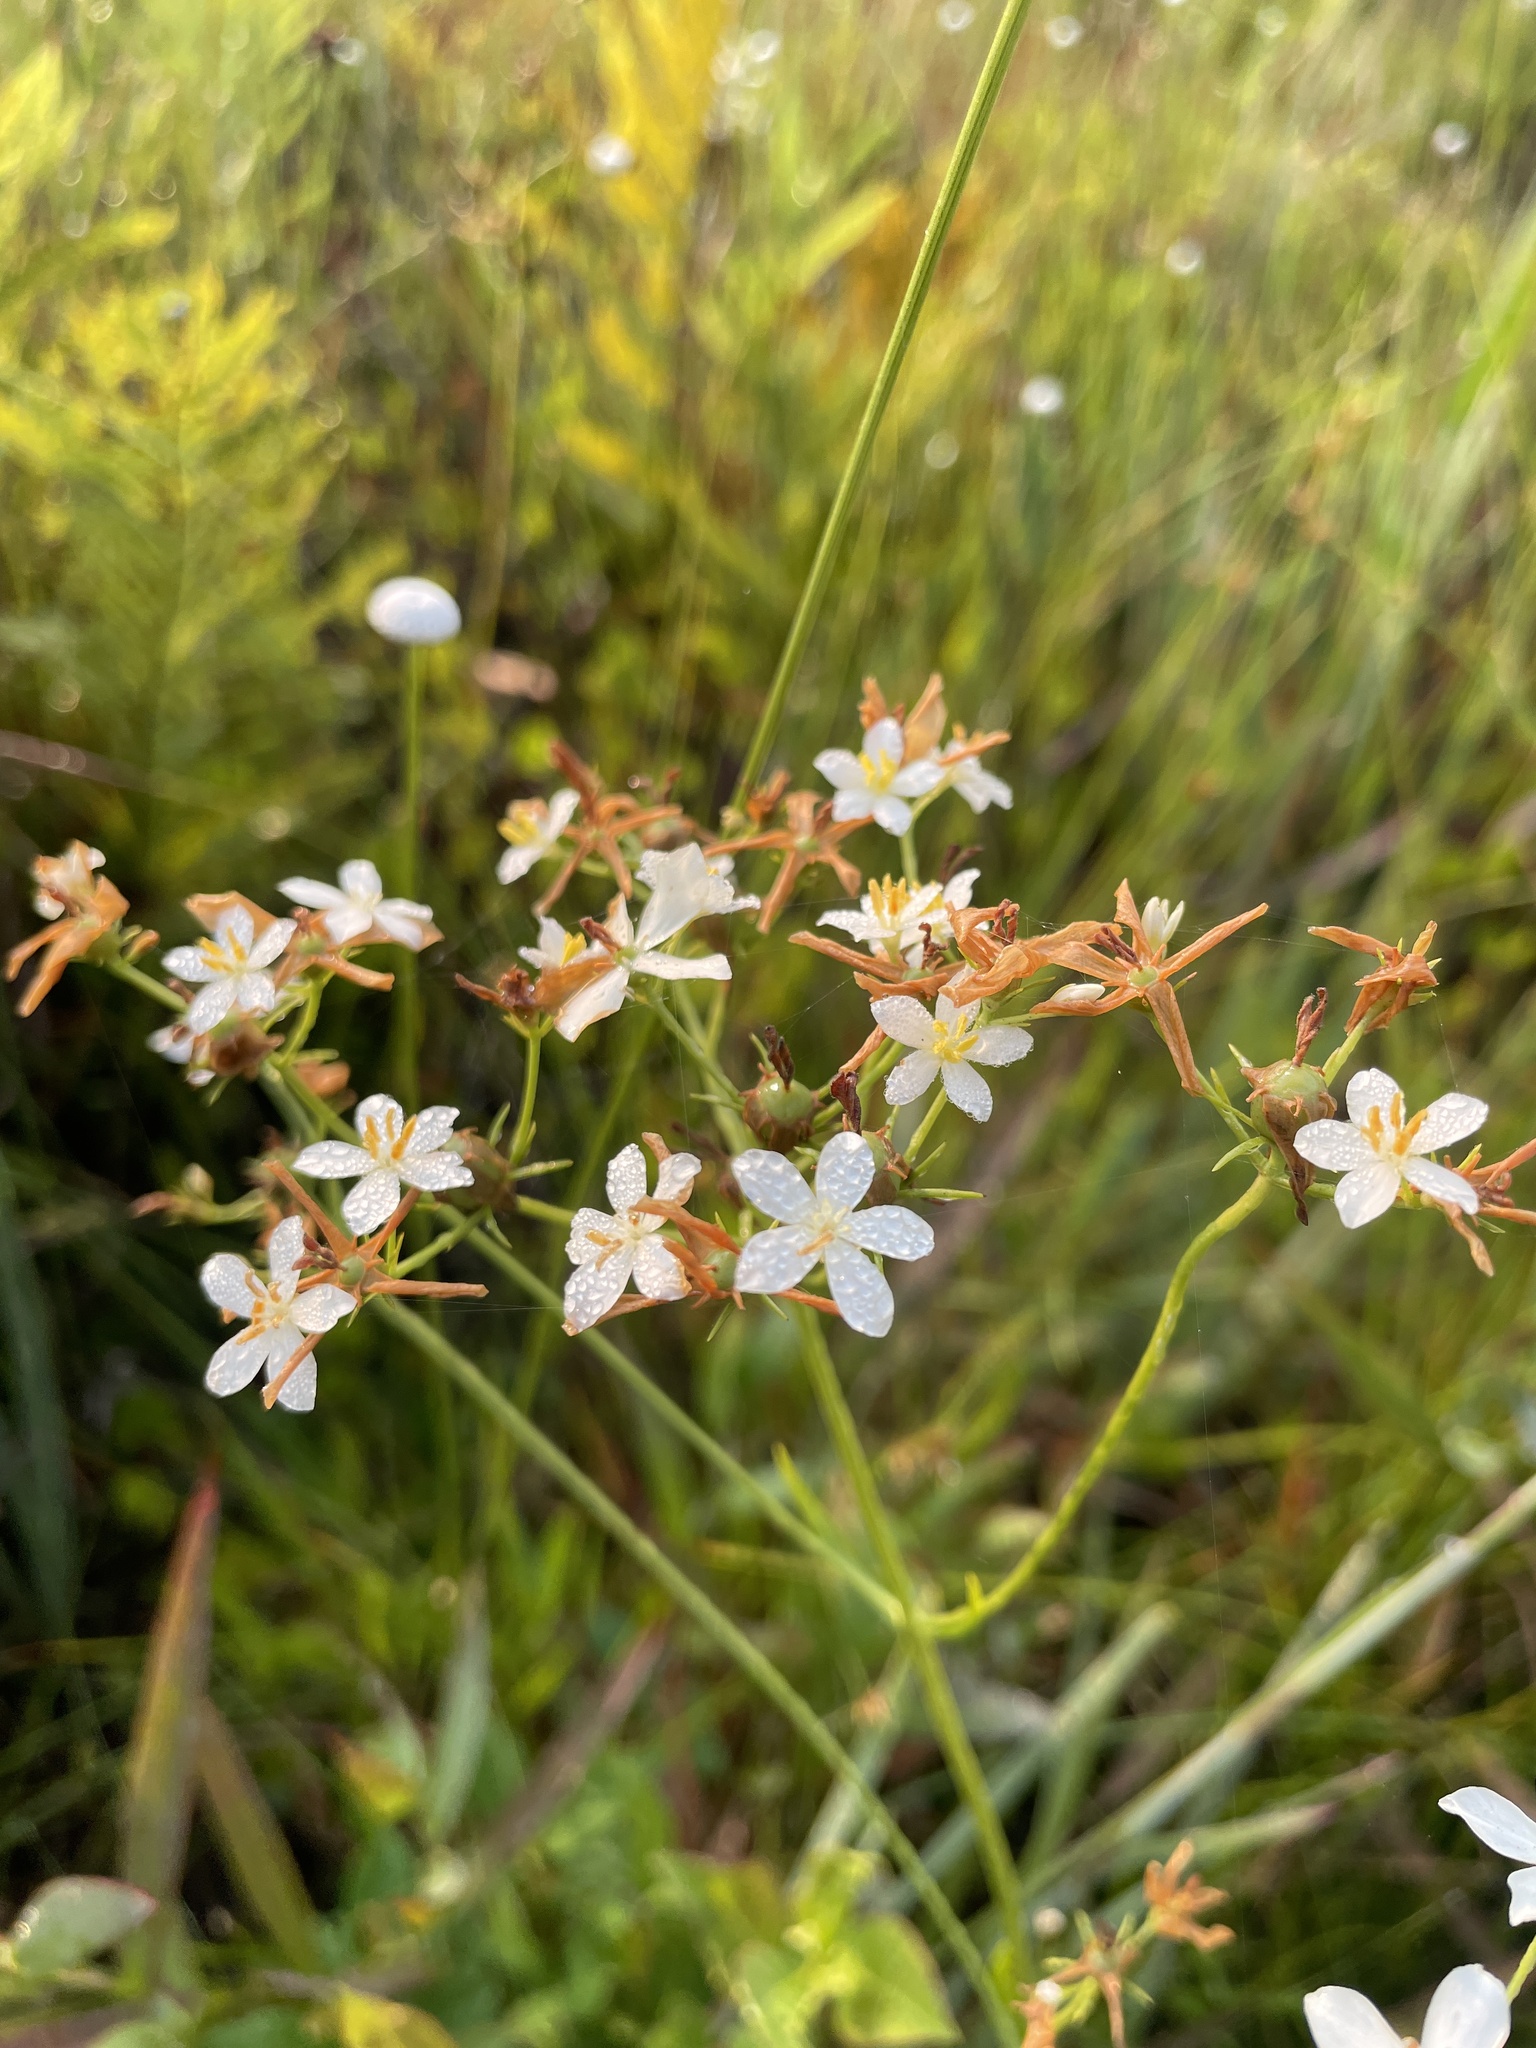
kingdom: Plantae
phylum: Tracheophyta
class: Magnoliopsida
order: Gentianales
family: Gentianaceae
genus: Sabatia
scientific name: Sabatia difformis
